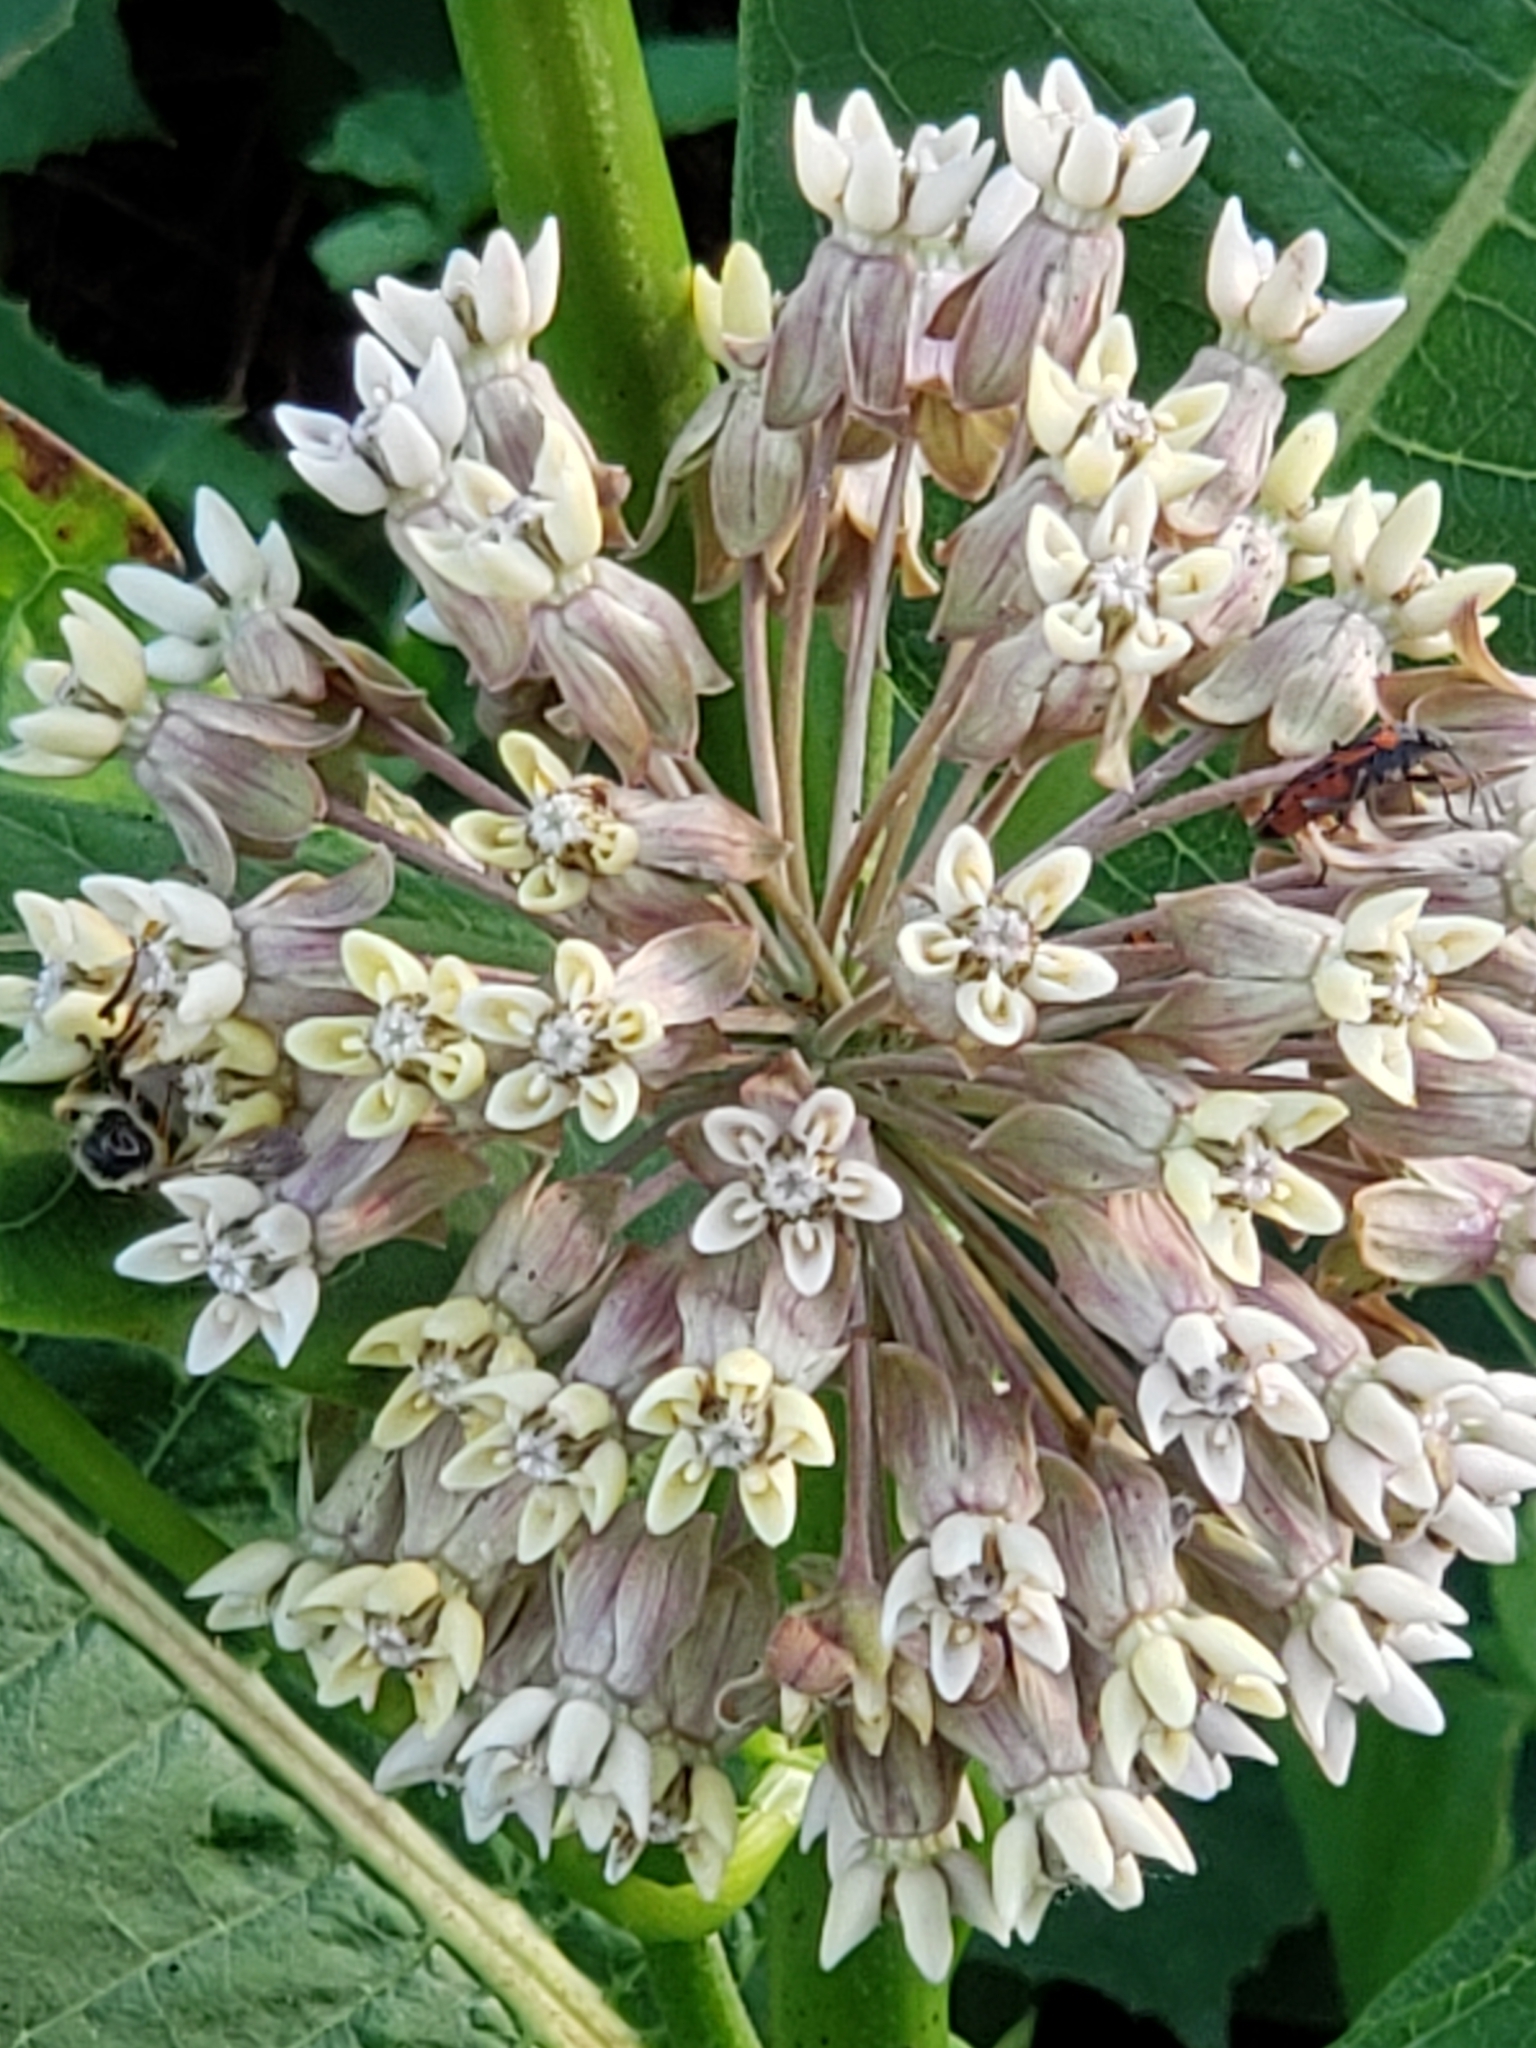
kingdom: Plantae
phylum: Tracheophyta
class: Magnoliopsida
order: Gentianales
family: Apocynaceae
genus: Asclepias
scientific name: Asclepias syriaca
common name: Common milkweed
